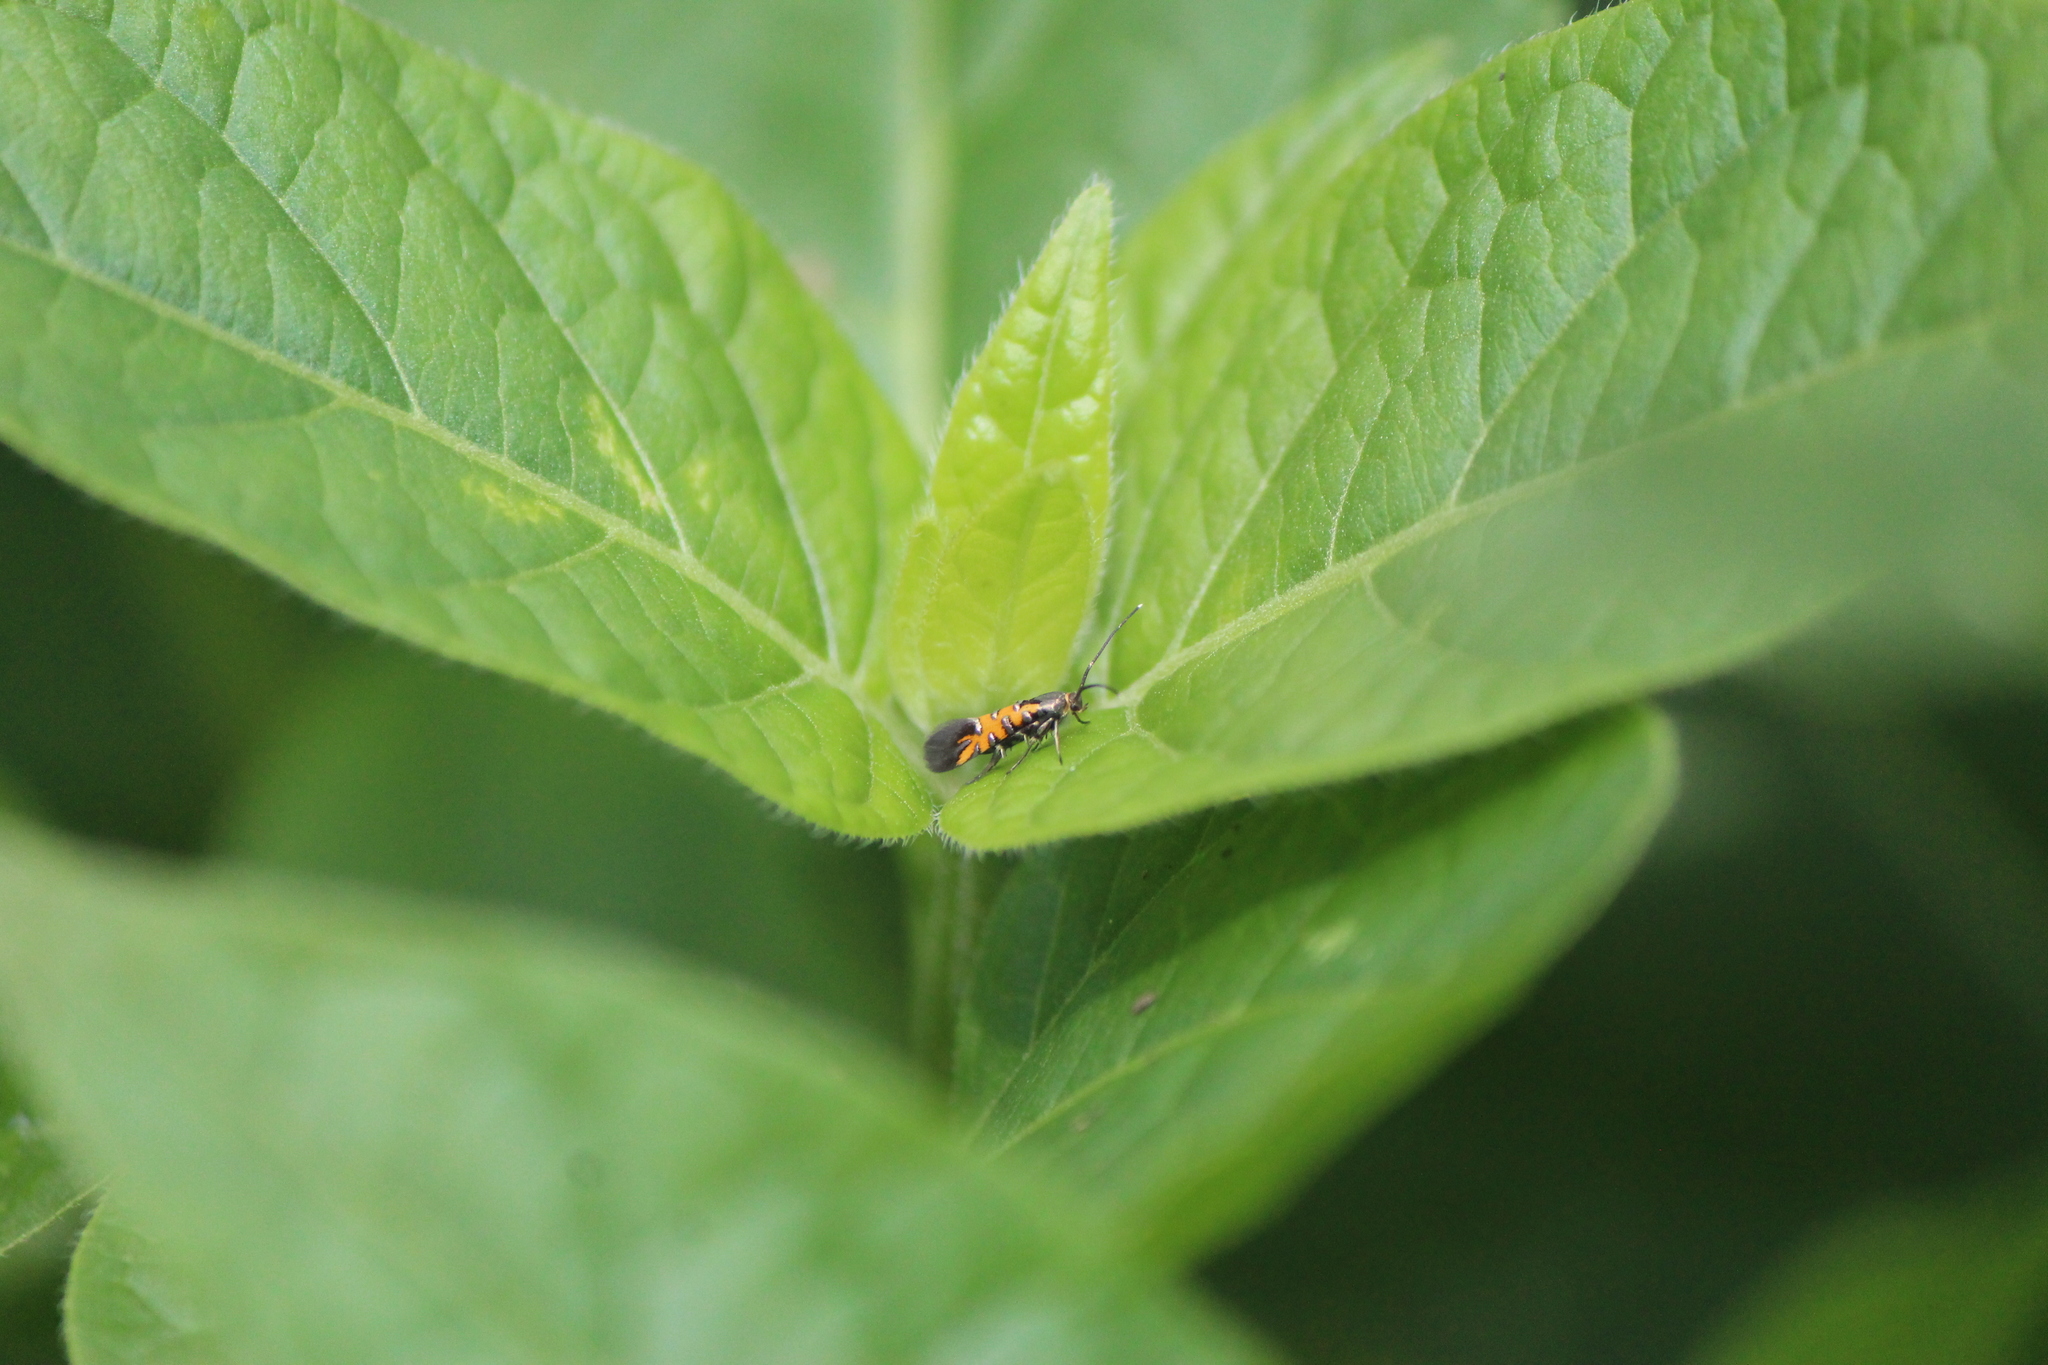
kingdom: Animalia
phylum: Arthropoda
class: Insecta
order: Lepidoptera
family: Heliodinidae
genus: Neoheliodines
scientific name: Neoheliodines
